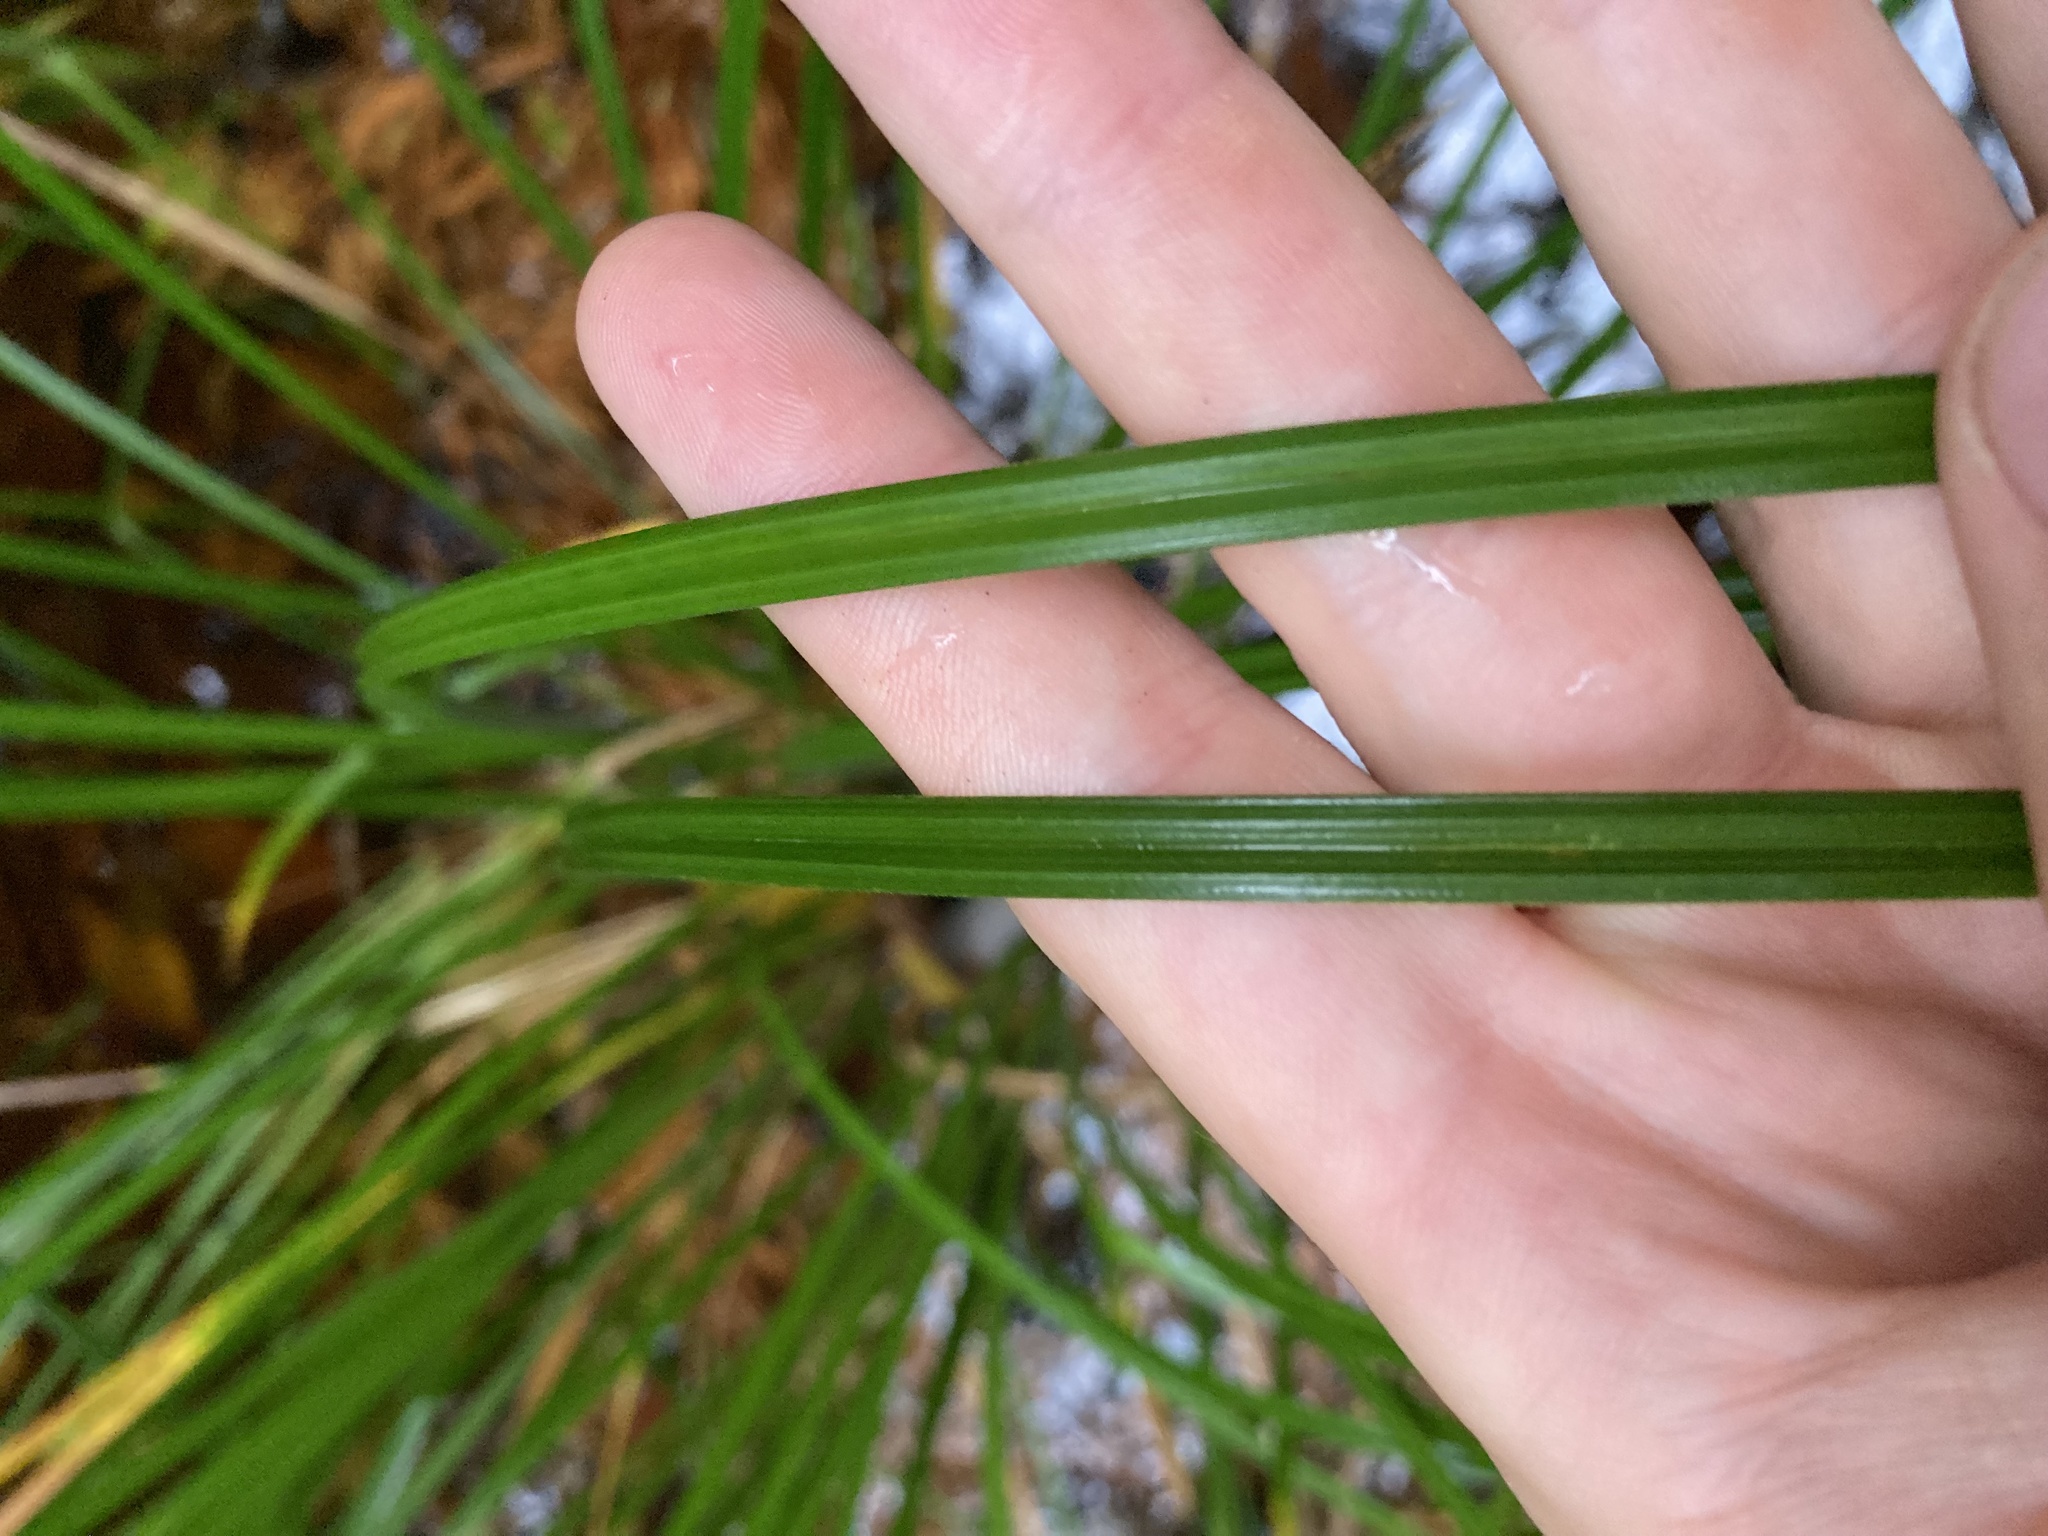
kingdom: Plantae
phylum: Tracheophyta
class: Liliopsida
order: Poales
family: Cyperaceae
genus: Carex
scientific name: Carex obnupta
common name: Slough sedge
